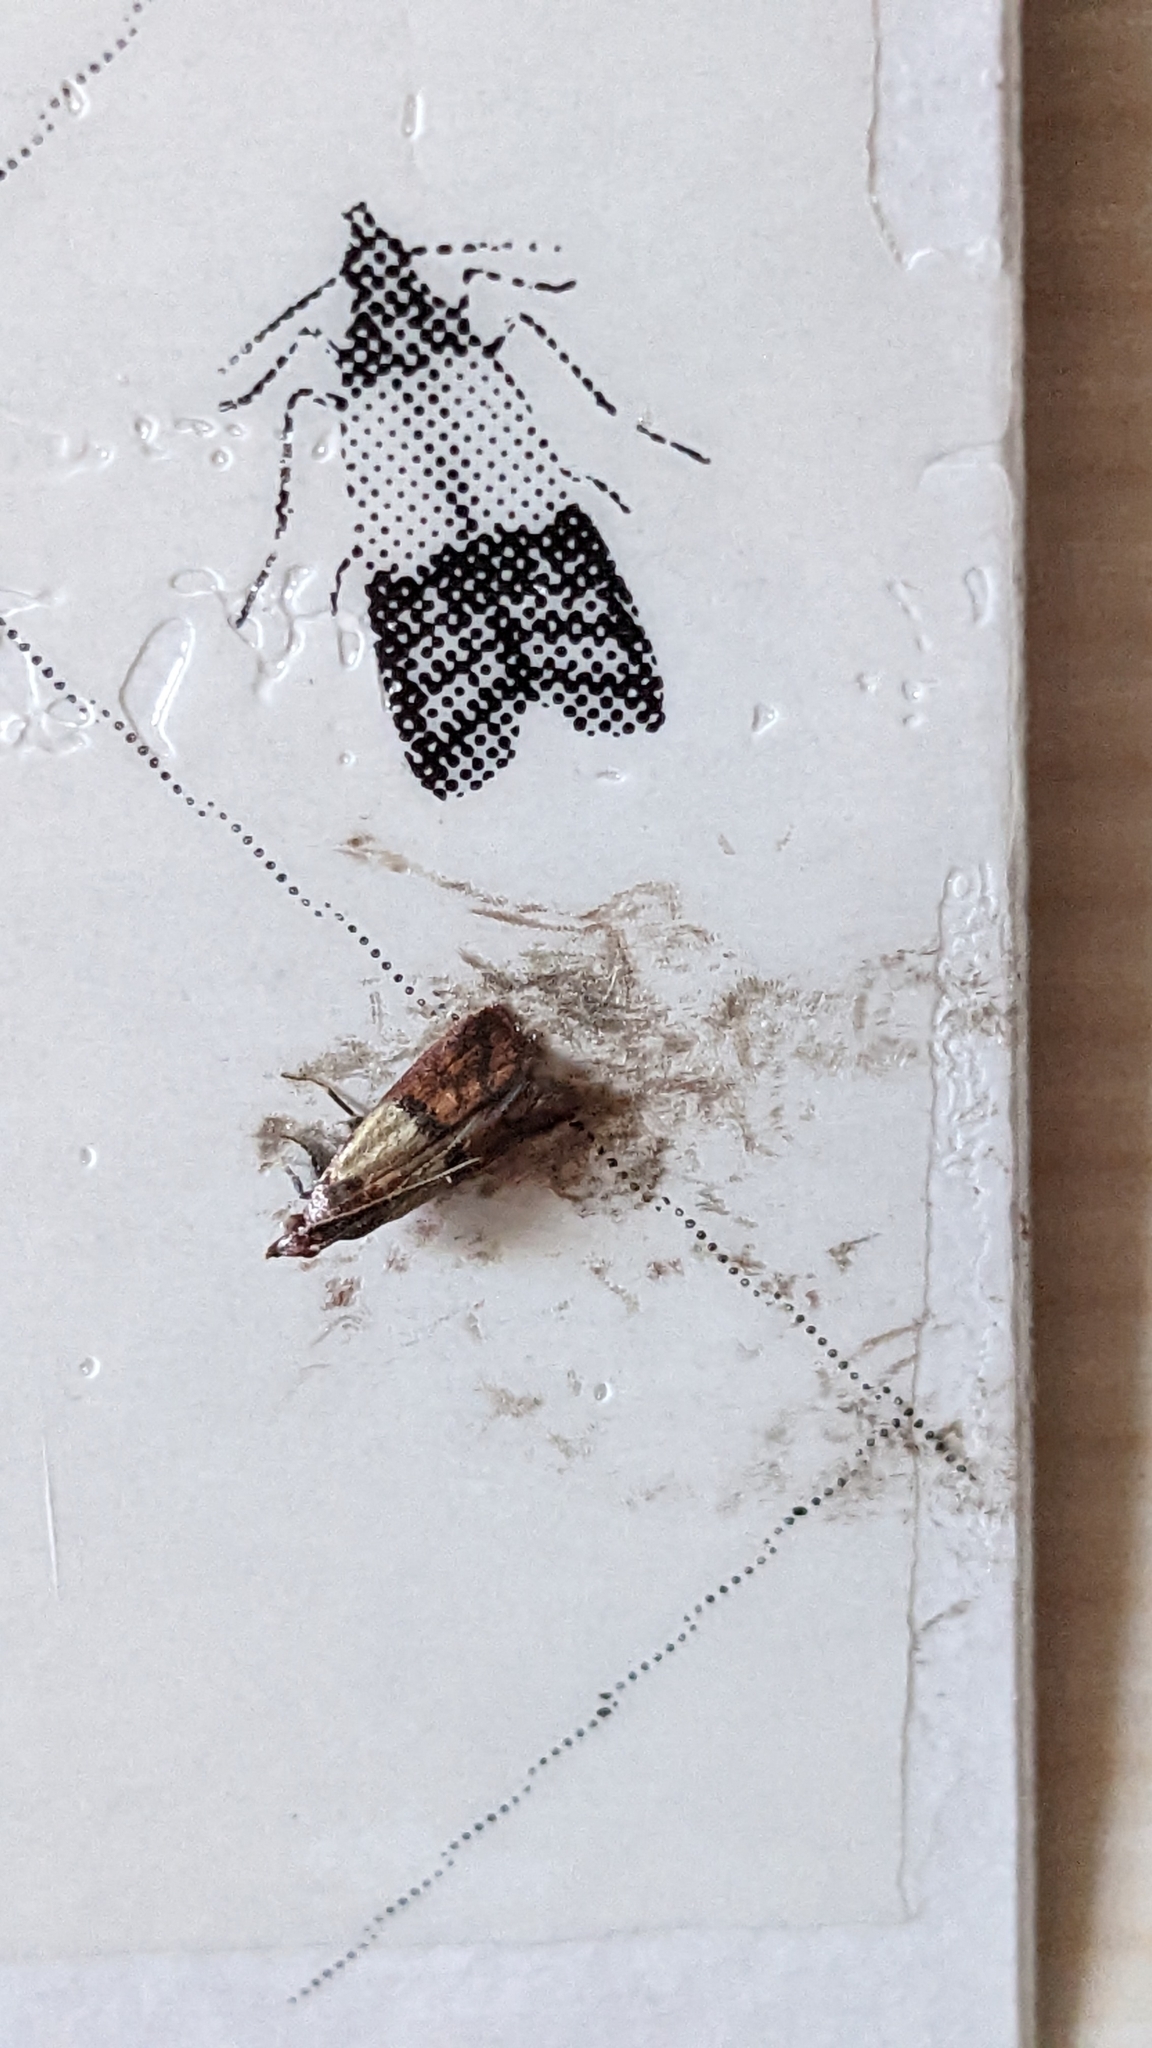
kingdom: Animalia
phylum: Arthropoda
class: Insecta
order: Lepidoptera
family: Pyralidae
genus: Plodia
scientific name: Plodia interpunctella
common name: Indian meal moth
